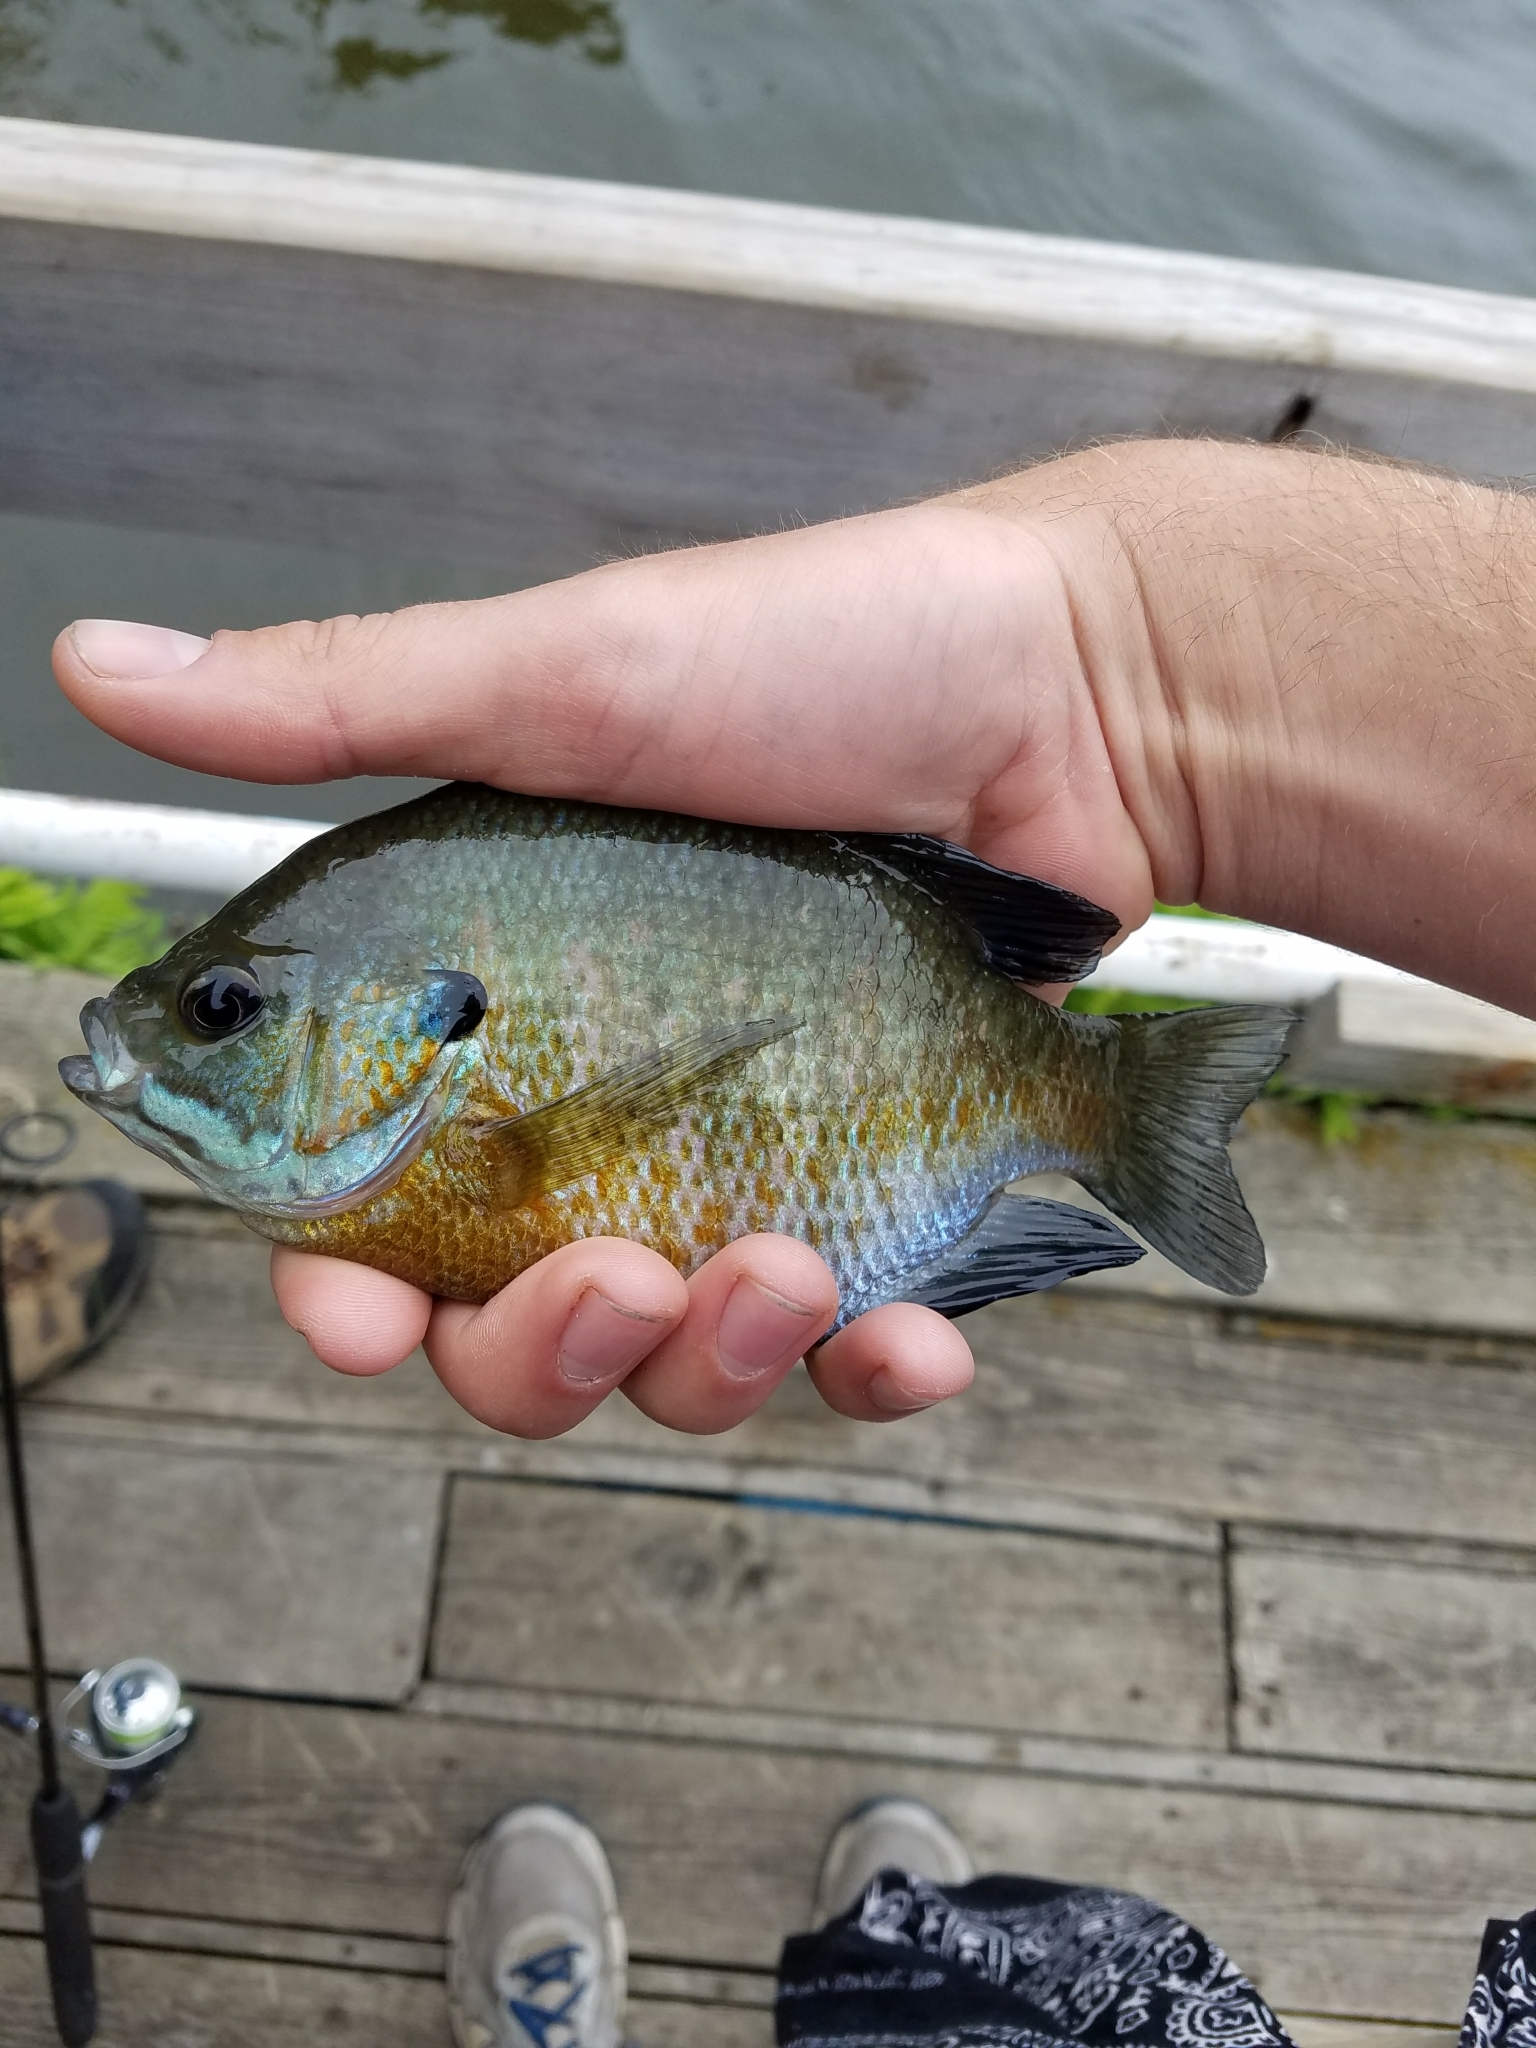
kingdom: Animalia
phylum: Chordata
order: Perciformes
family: Centrarchidae
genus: Lepomis
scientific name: Lepomis macrochirus
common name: Bluegill
